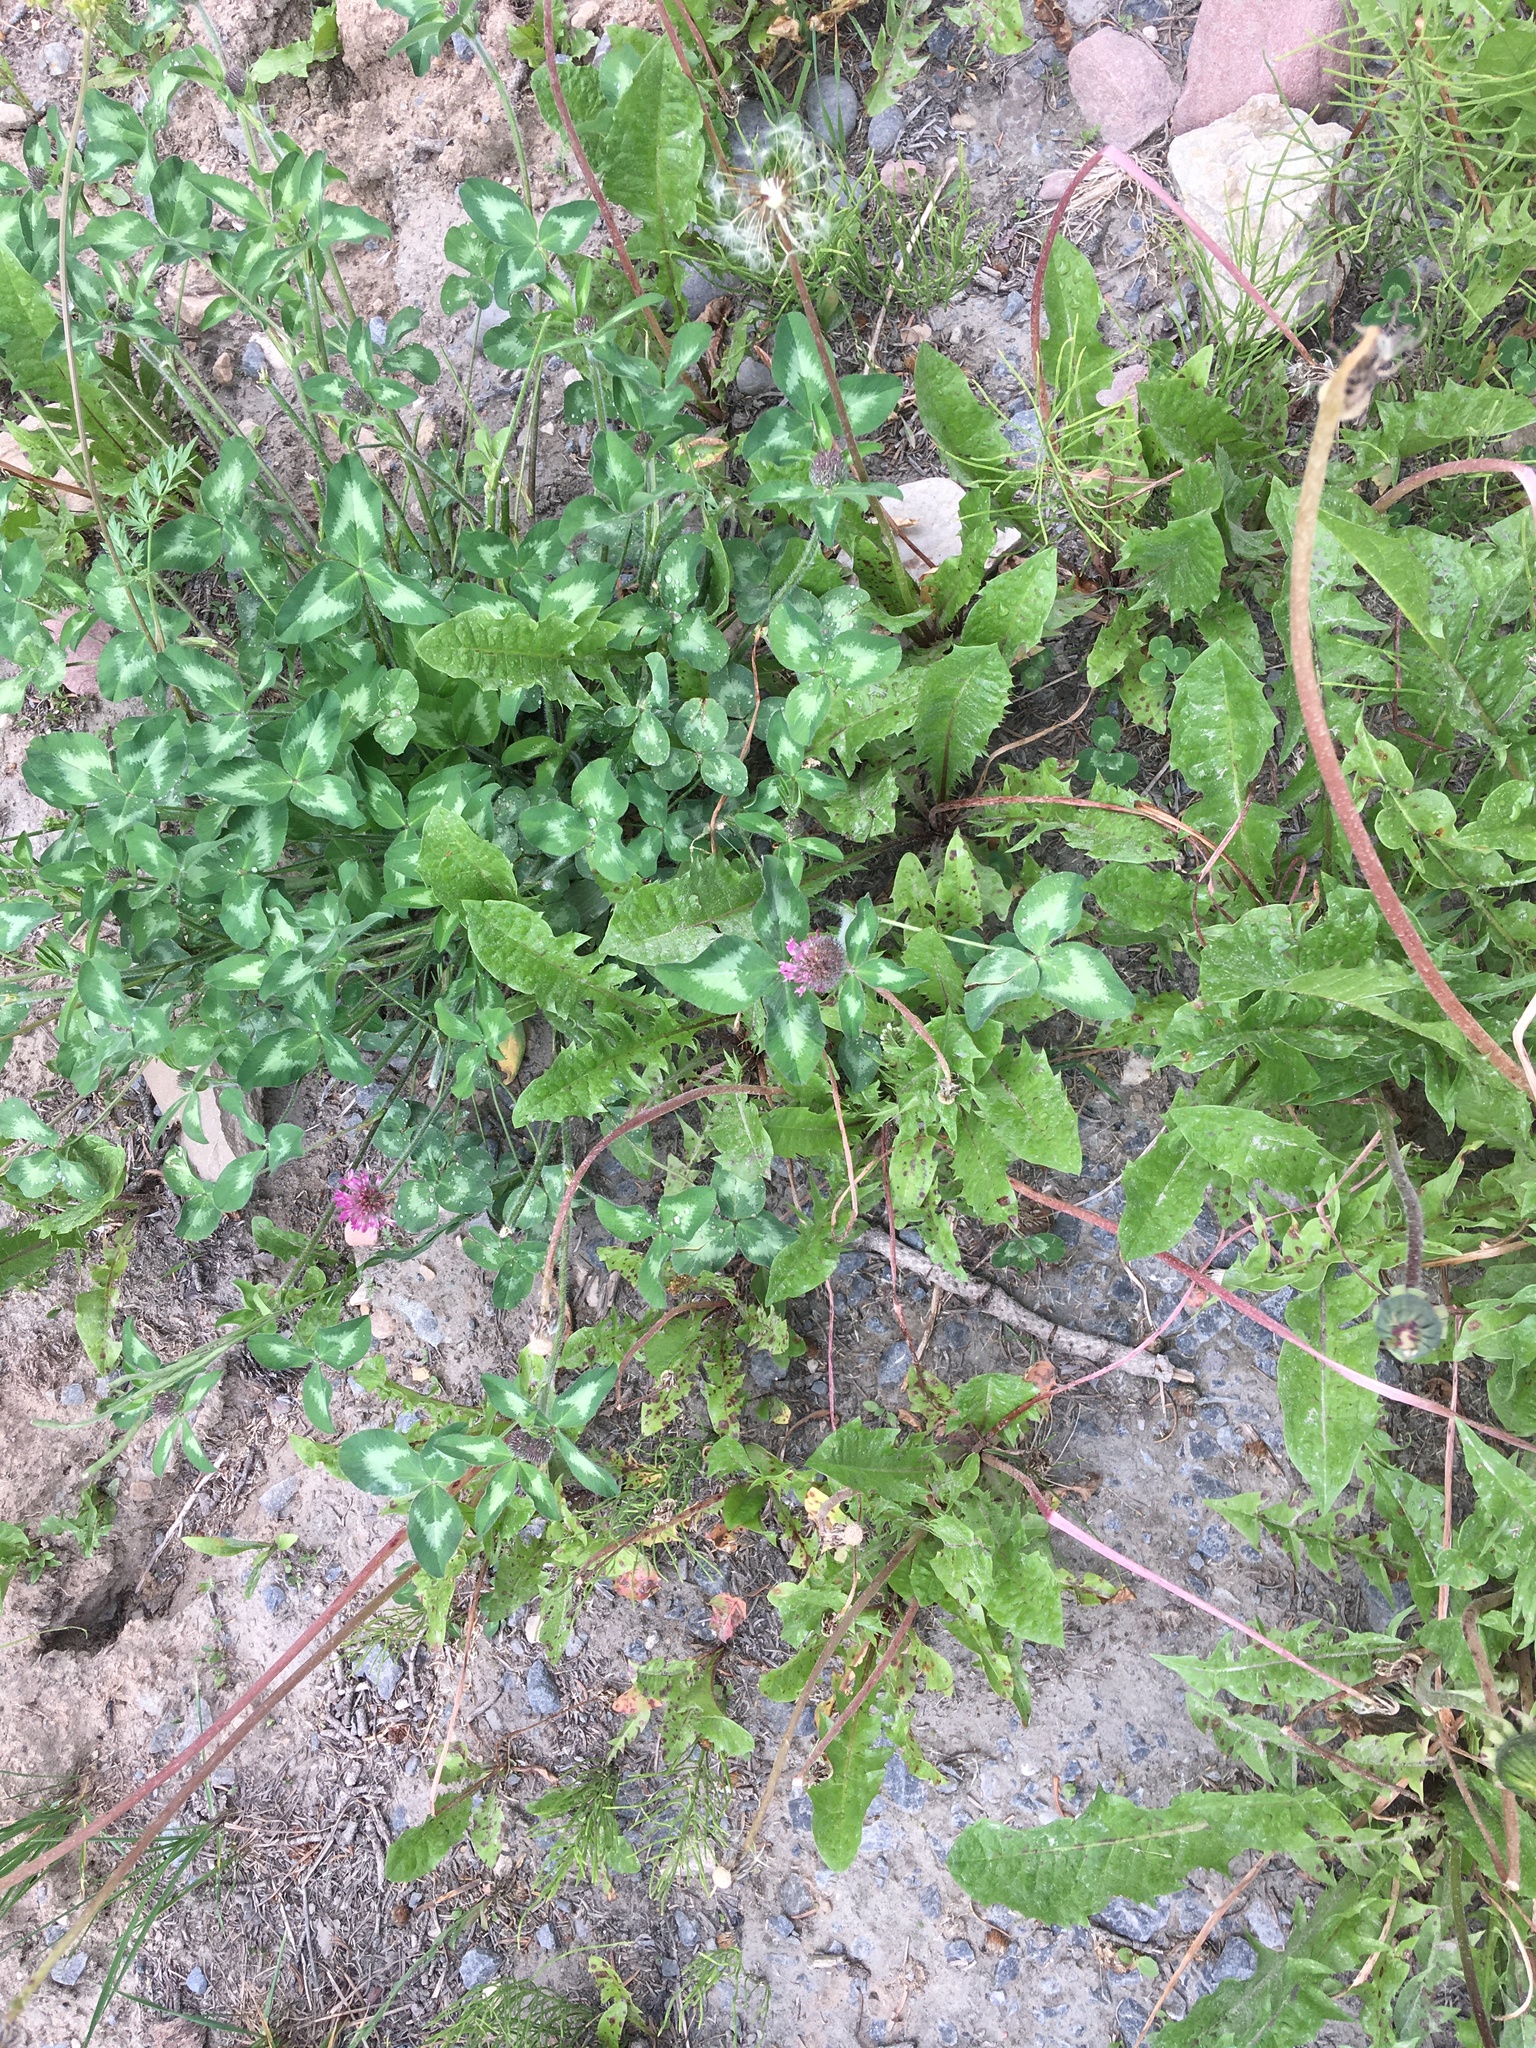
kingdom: Plantae
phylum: Tracheophyta
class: Magnoliopsida
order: Fabales
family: Fabaceae
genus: Trifolium
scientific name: Trifolium pratense
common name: Red clover
